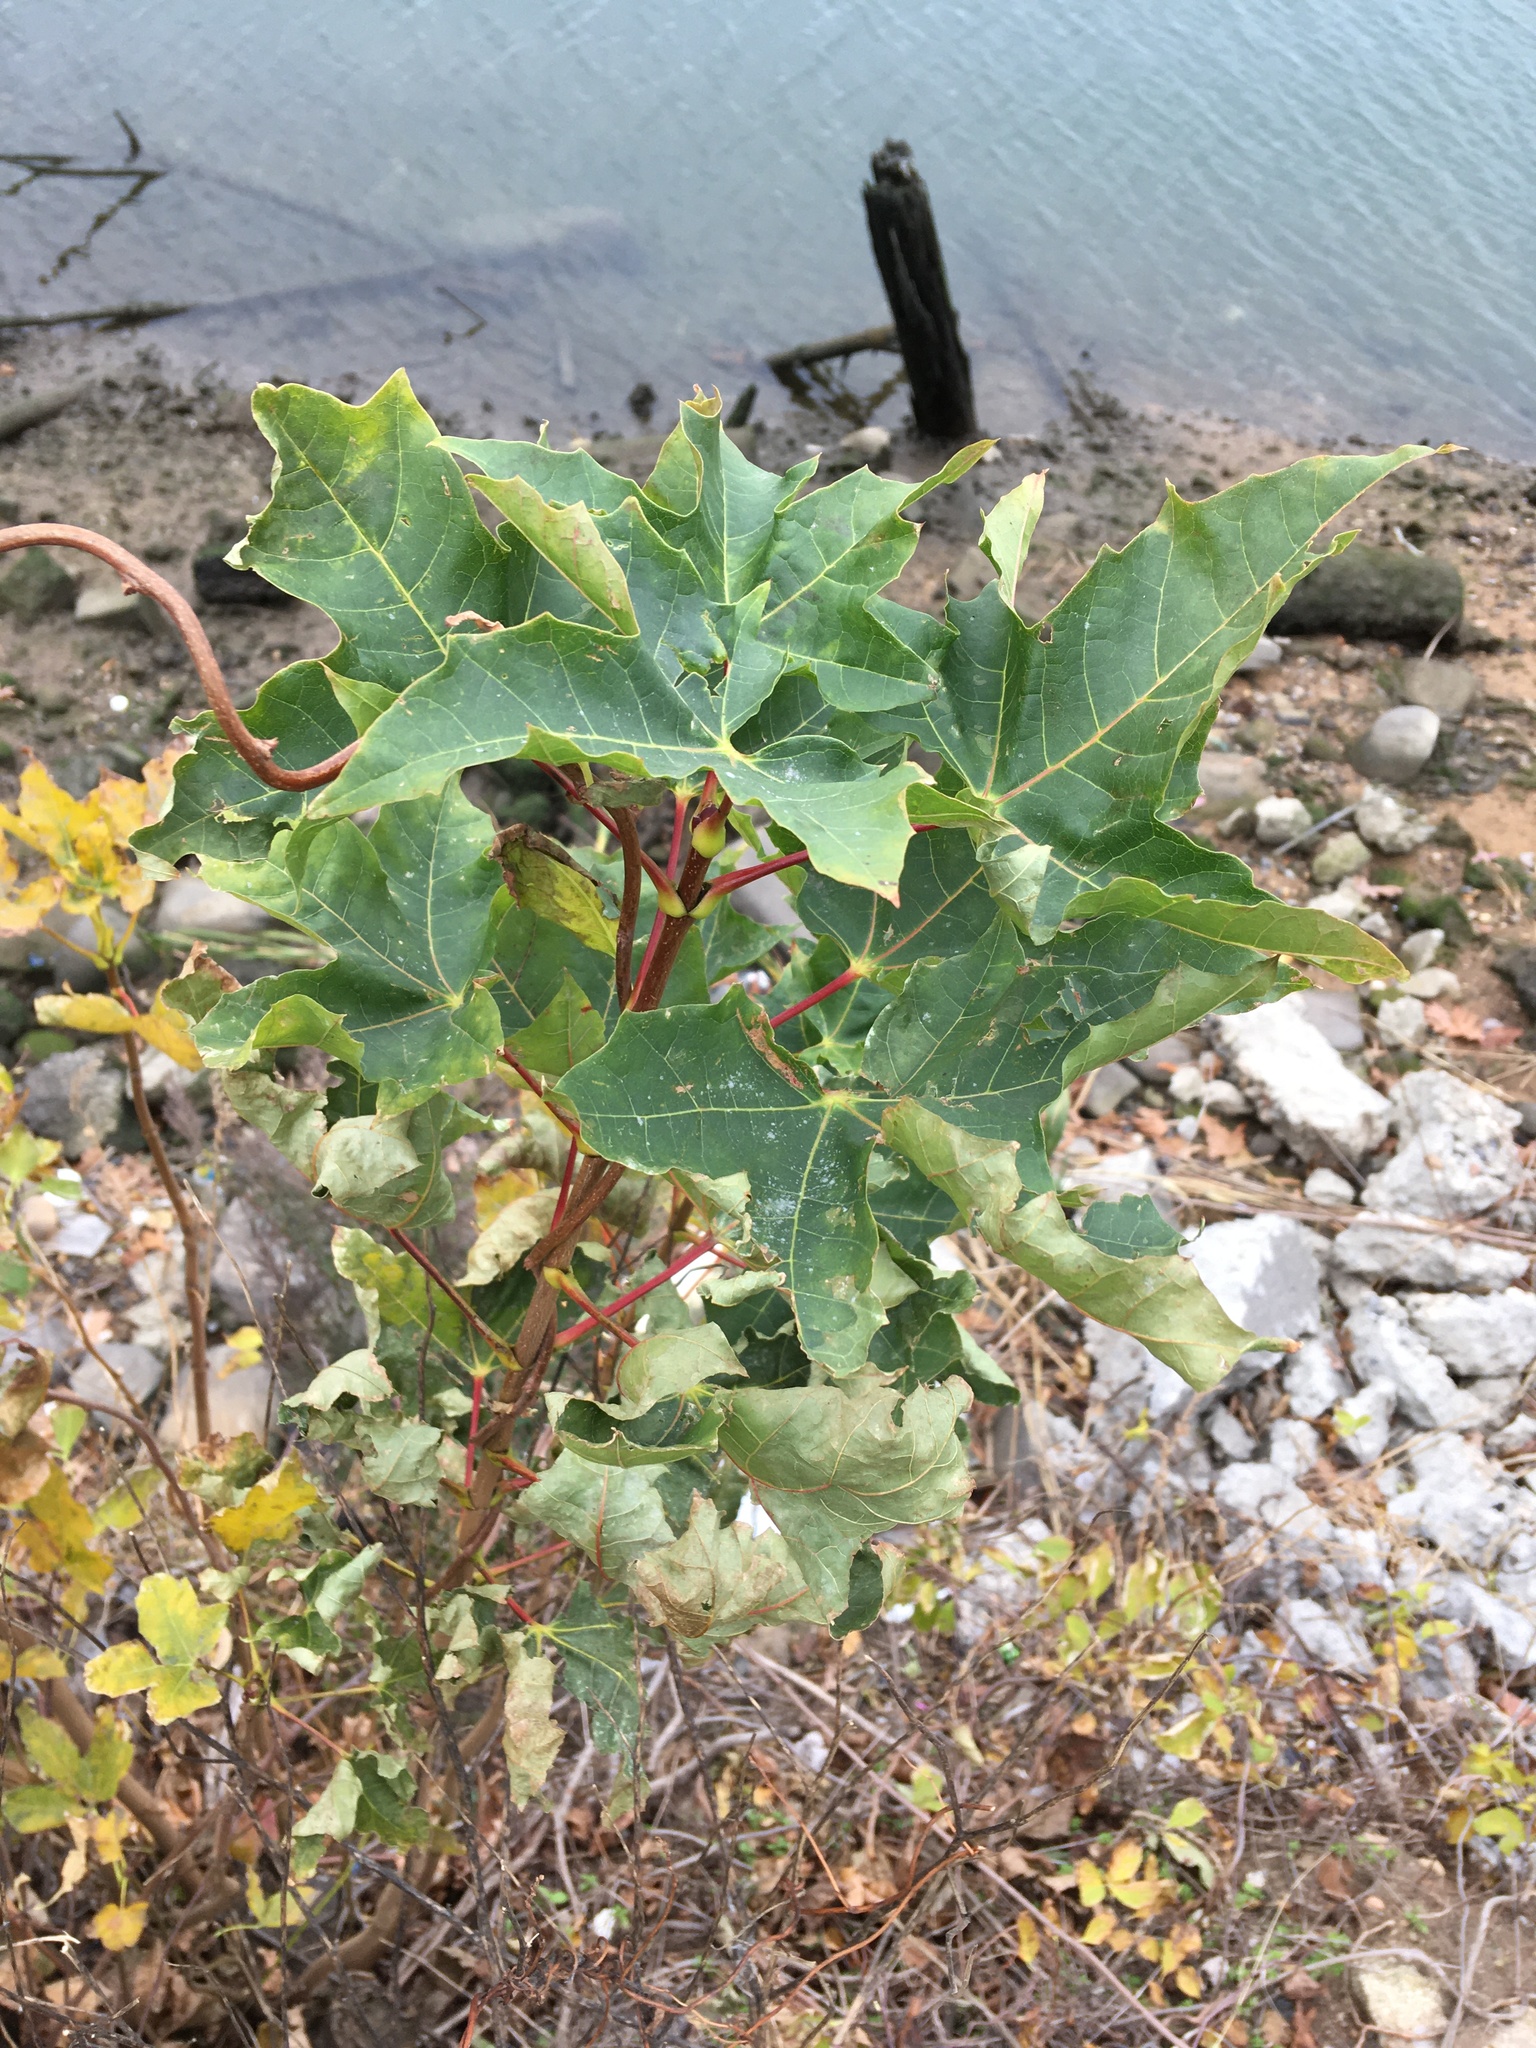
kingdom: Plantae
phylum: Tracheophyta
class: Magnoliopsida
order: Sapindales
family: Sapindaceae
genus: Acer
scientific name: Acer platanoides
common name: Norway maple
